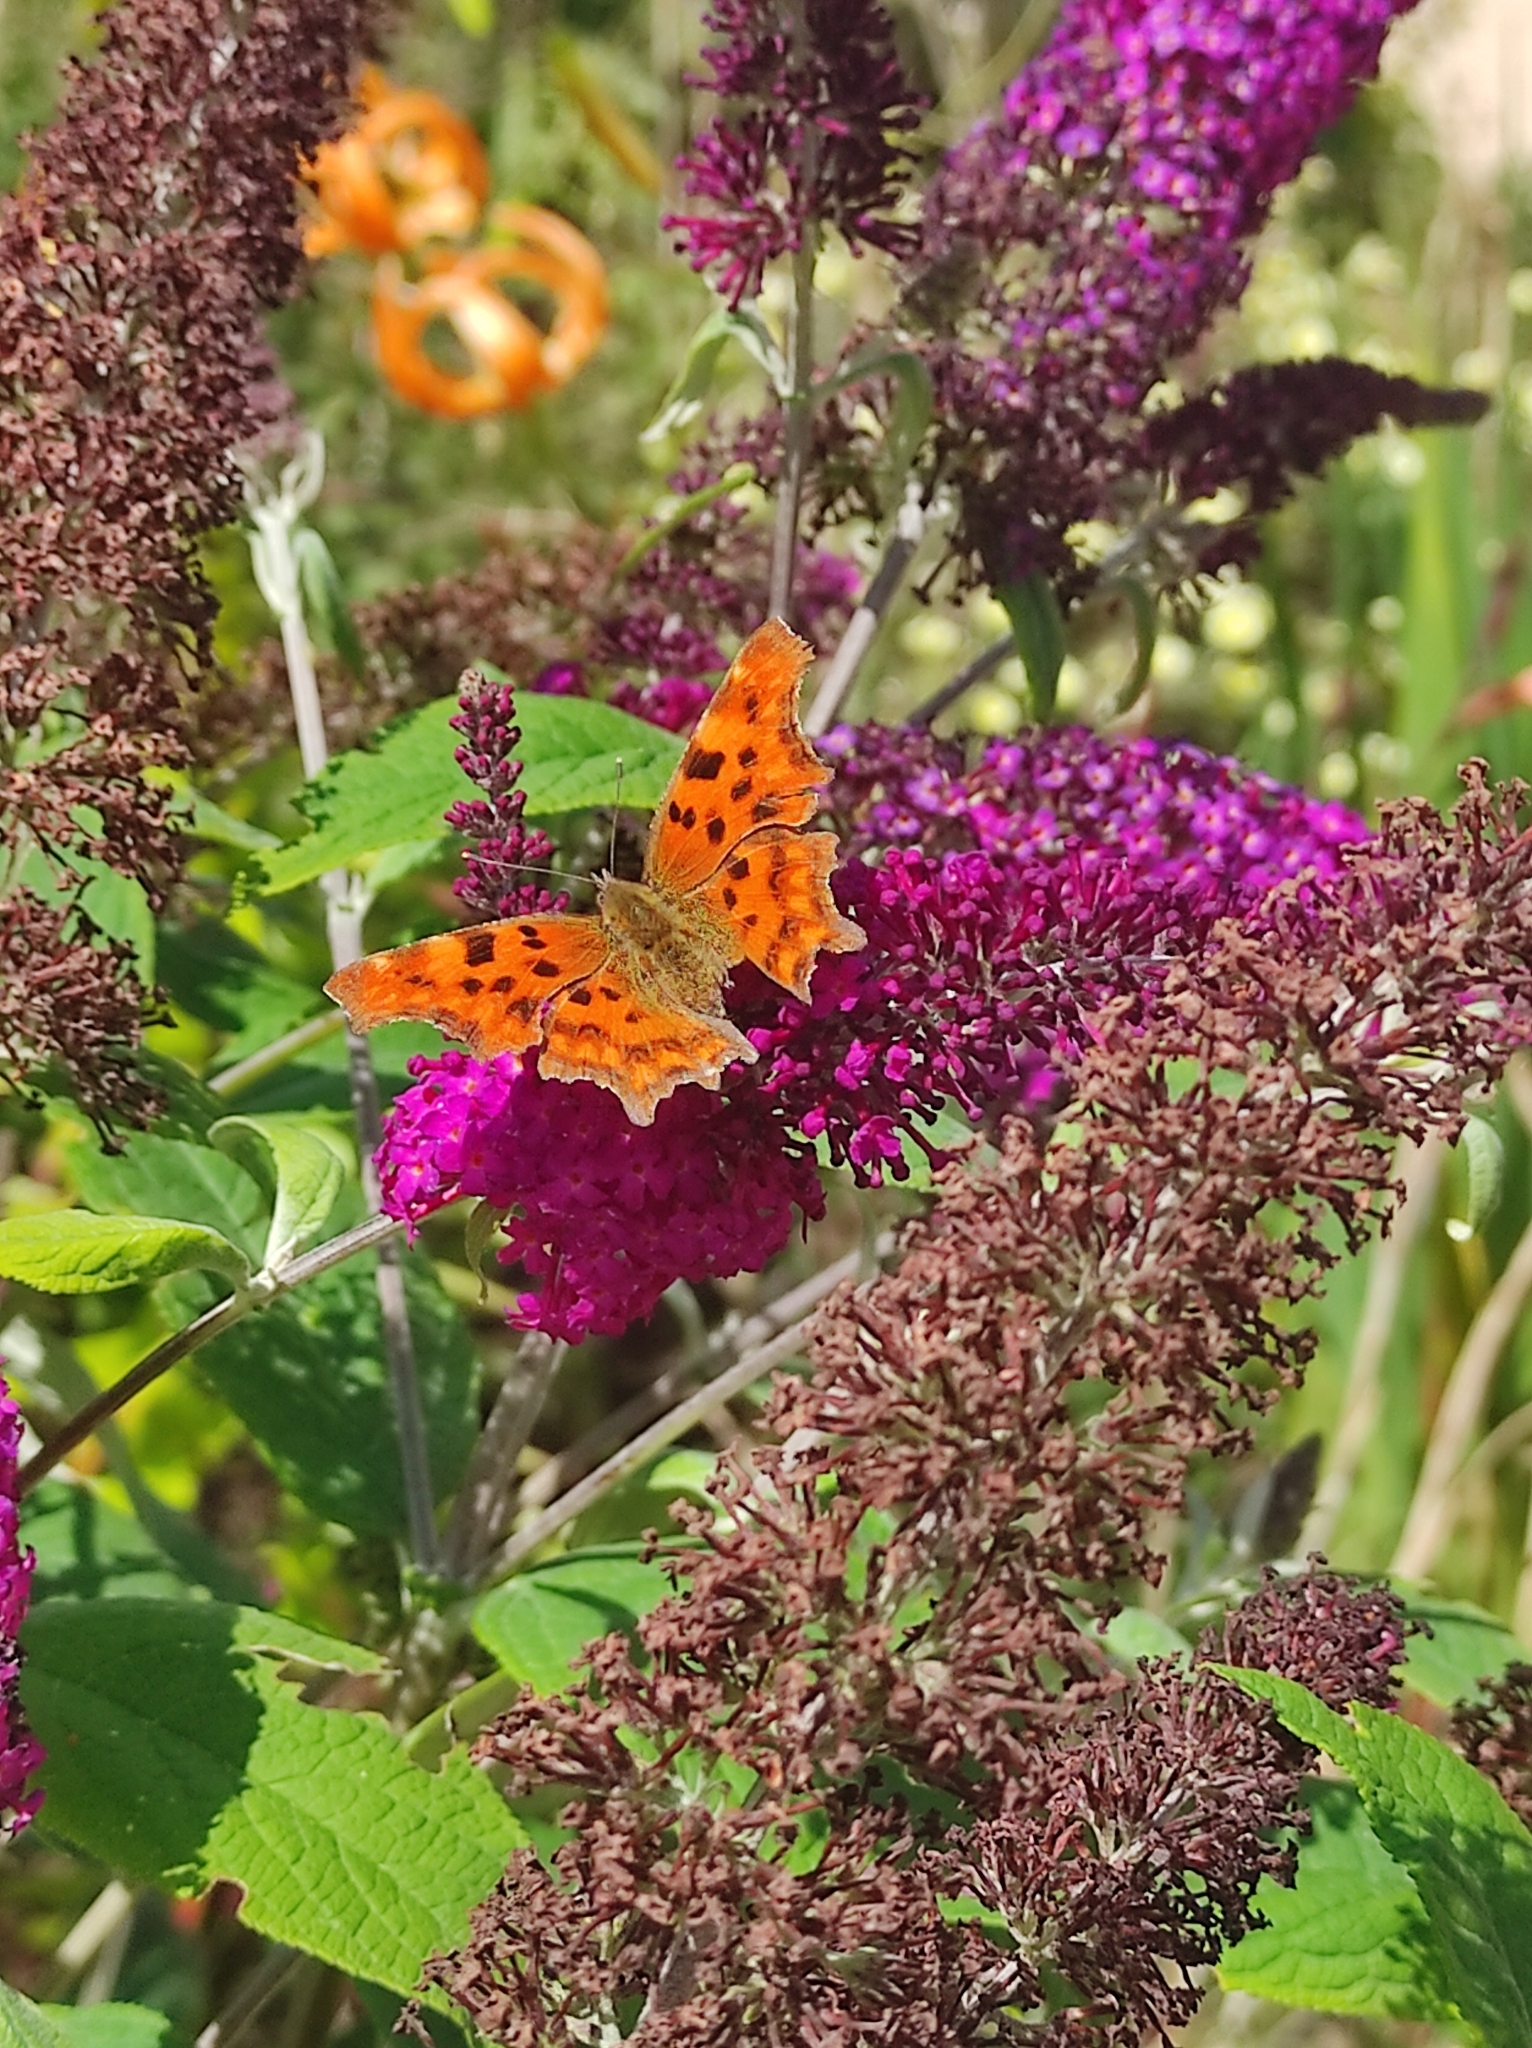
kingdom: Animalia
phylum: Arthropoda
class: Insecta
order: Lepidoptera
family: Nymphalidae
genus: Polygonia
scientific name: Polygonia c-album
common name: Comma
